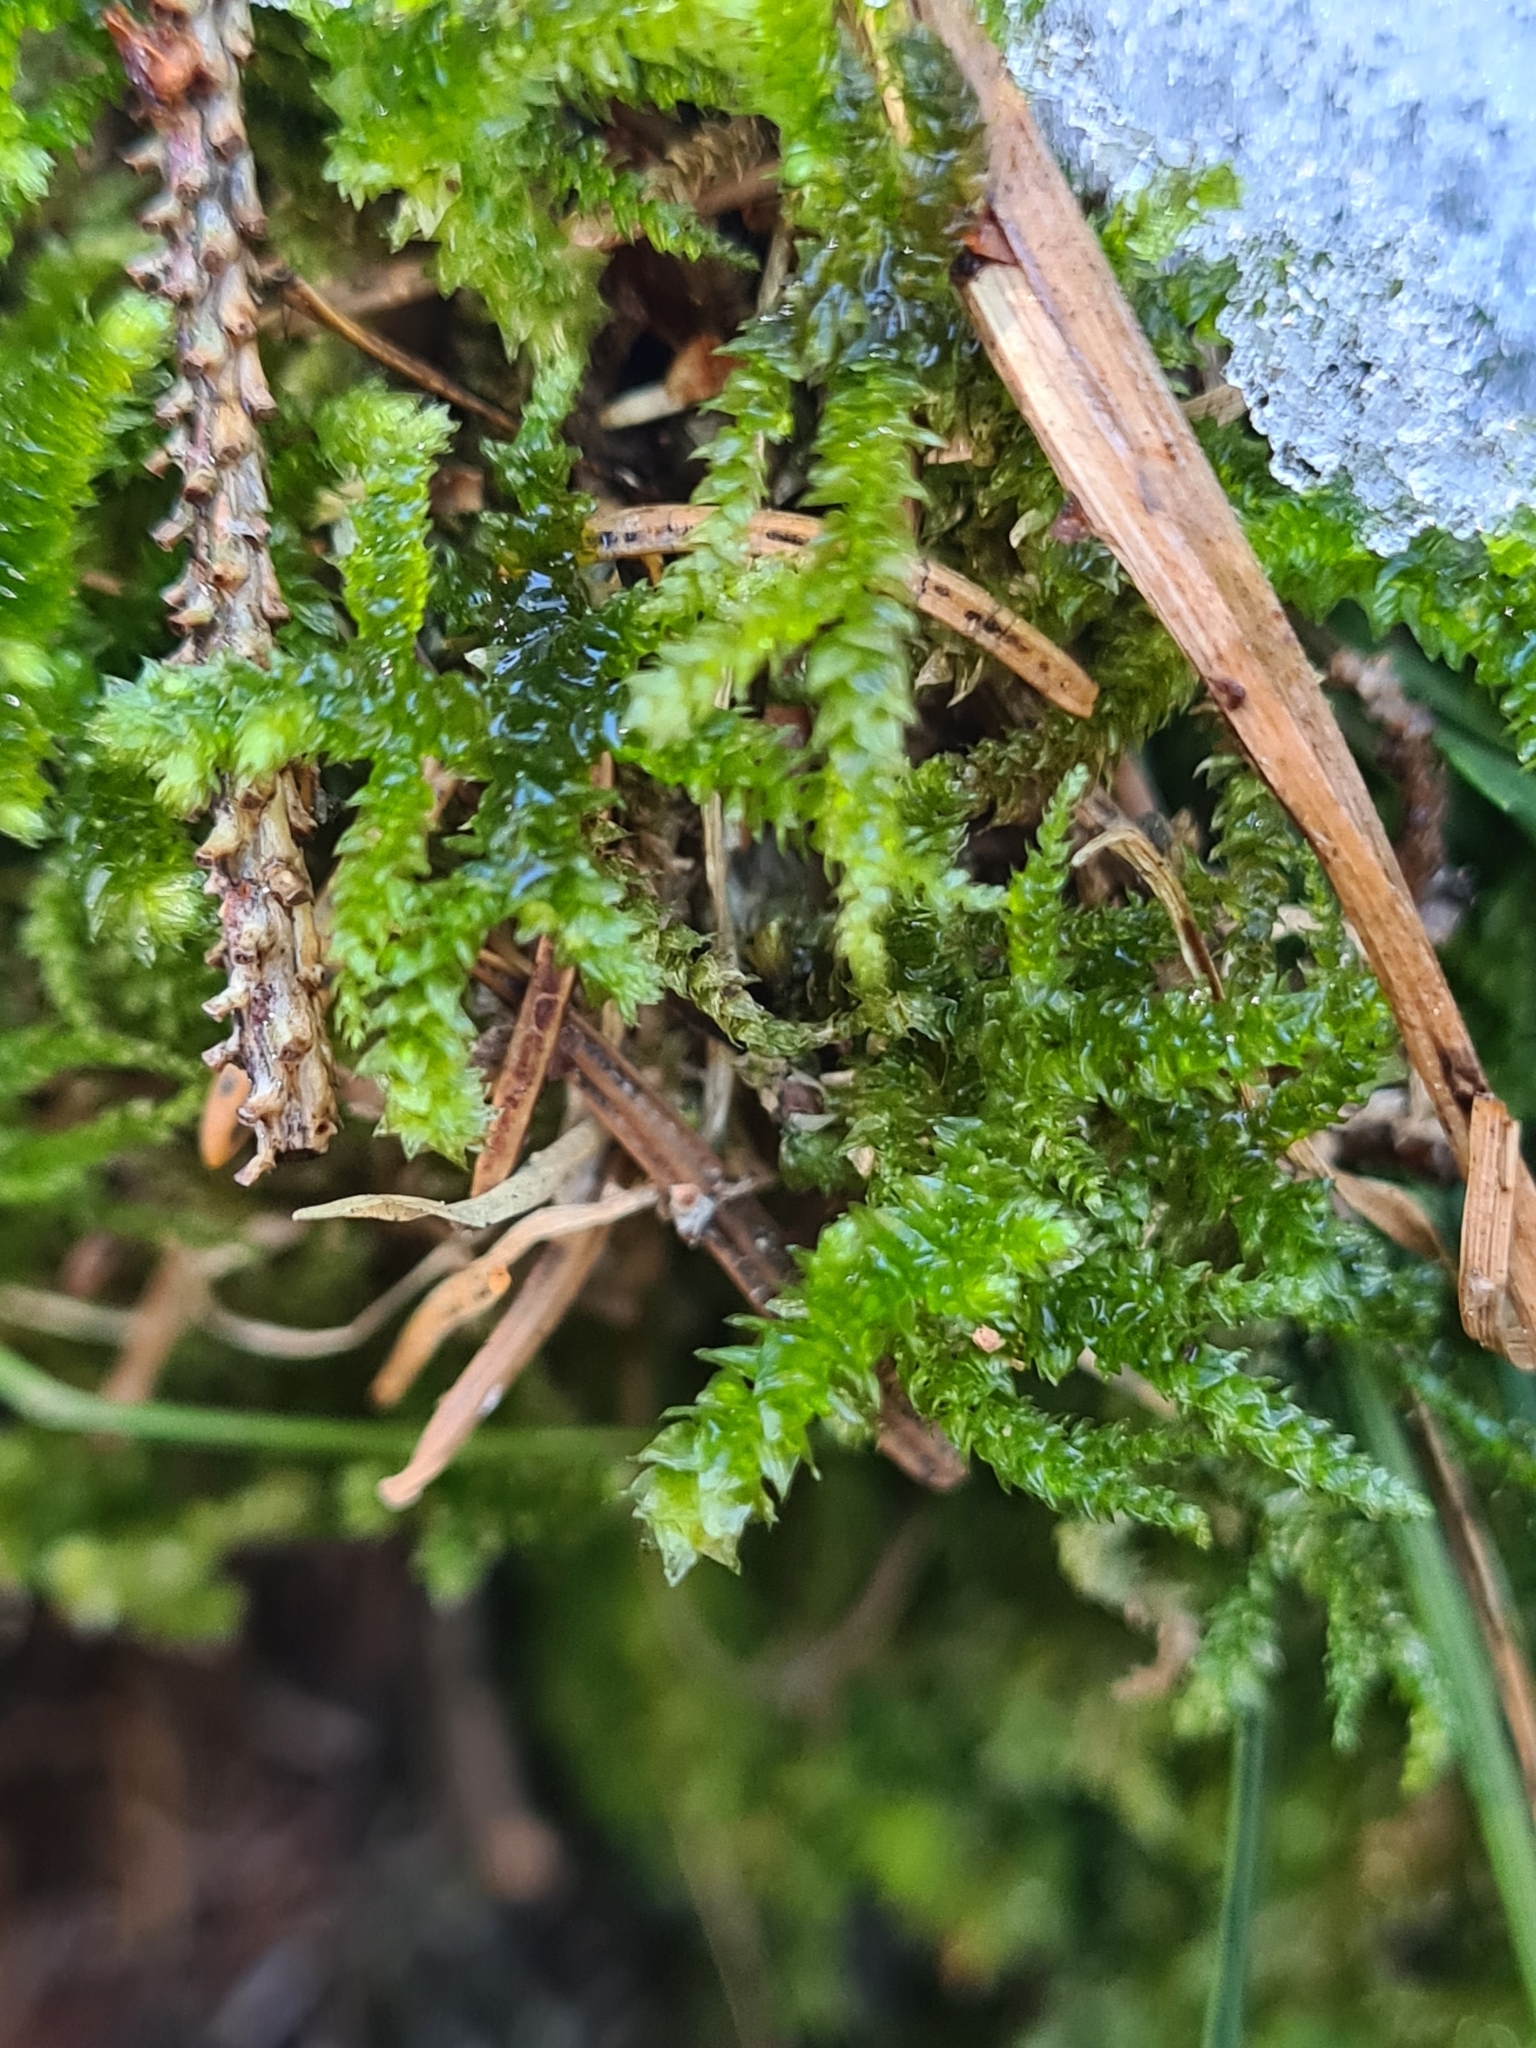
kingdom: Plantae
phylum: Bryophyta
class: Bryopsida
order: Hypnales
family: Brachytheciaceae
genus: Eurhynchium
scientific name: Eurhynchium angustirete
